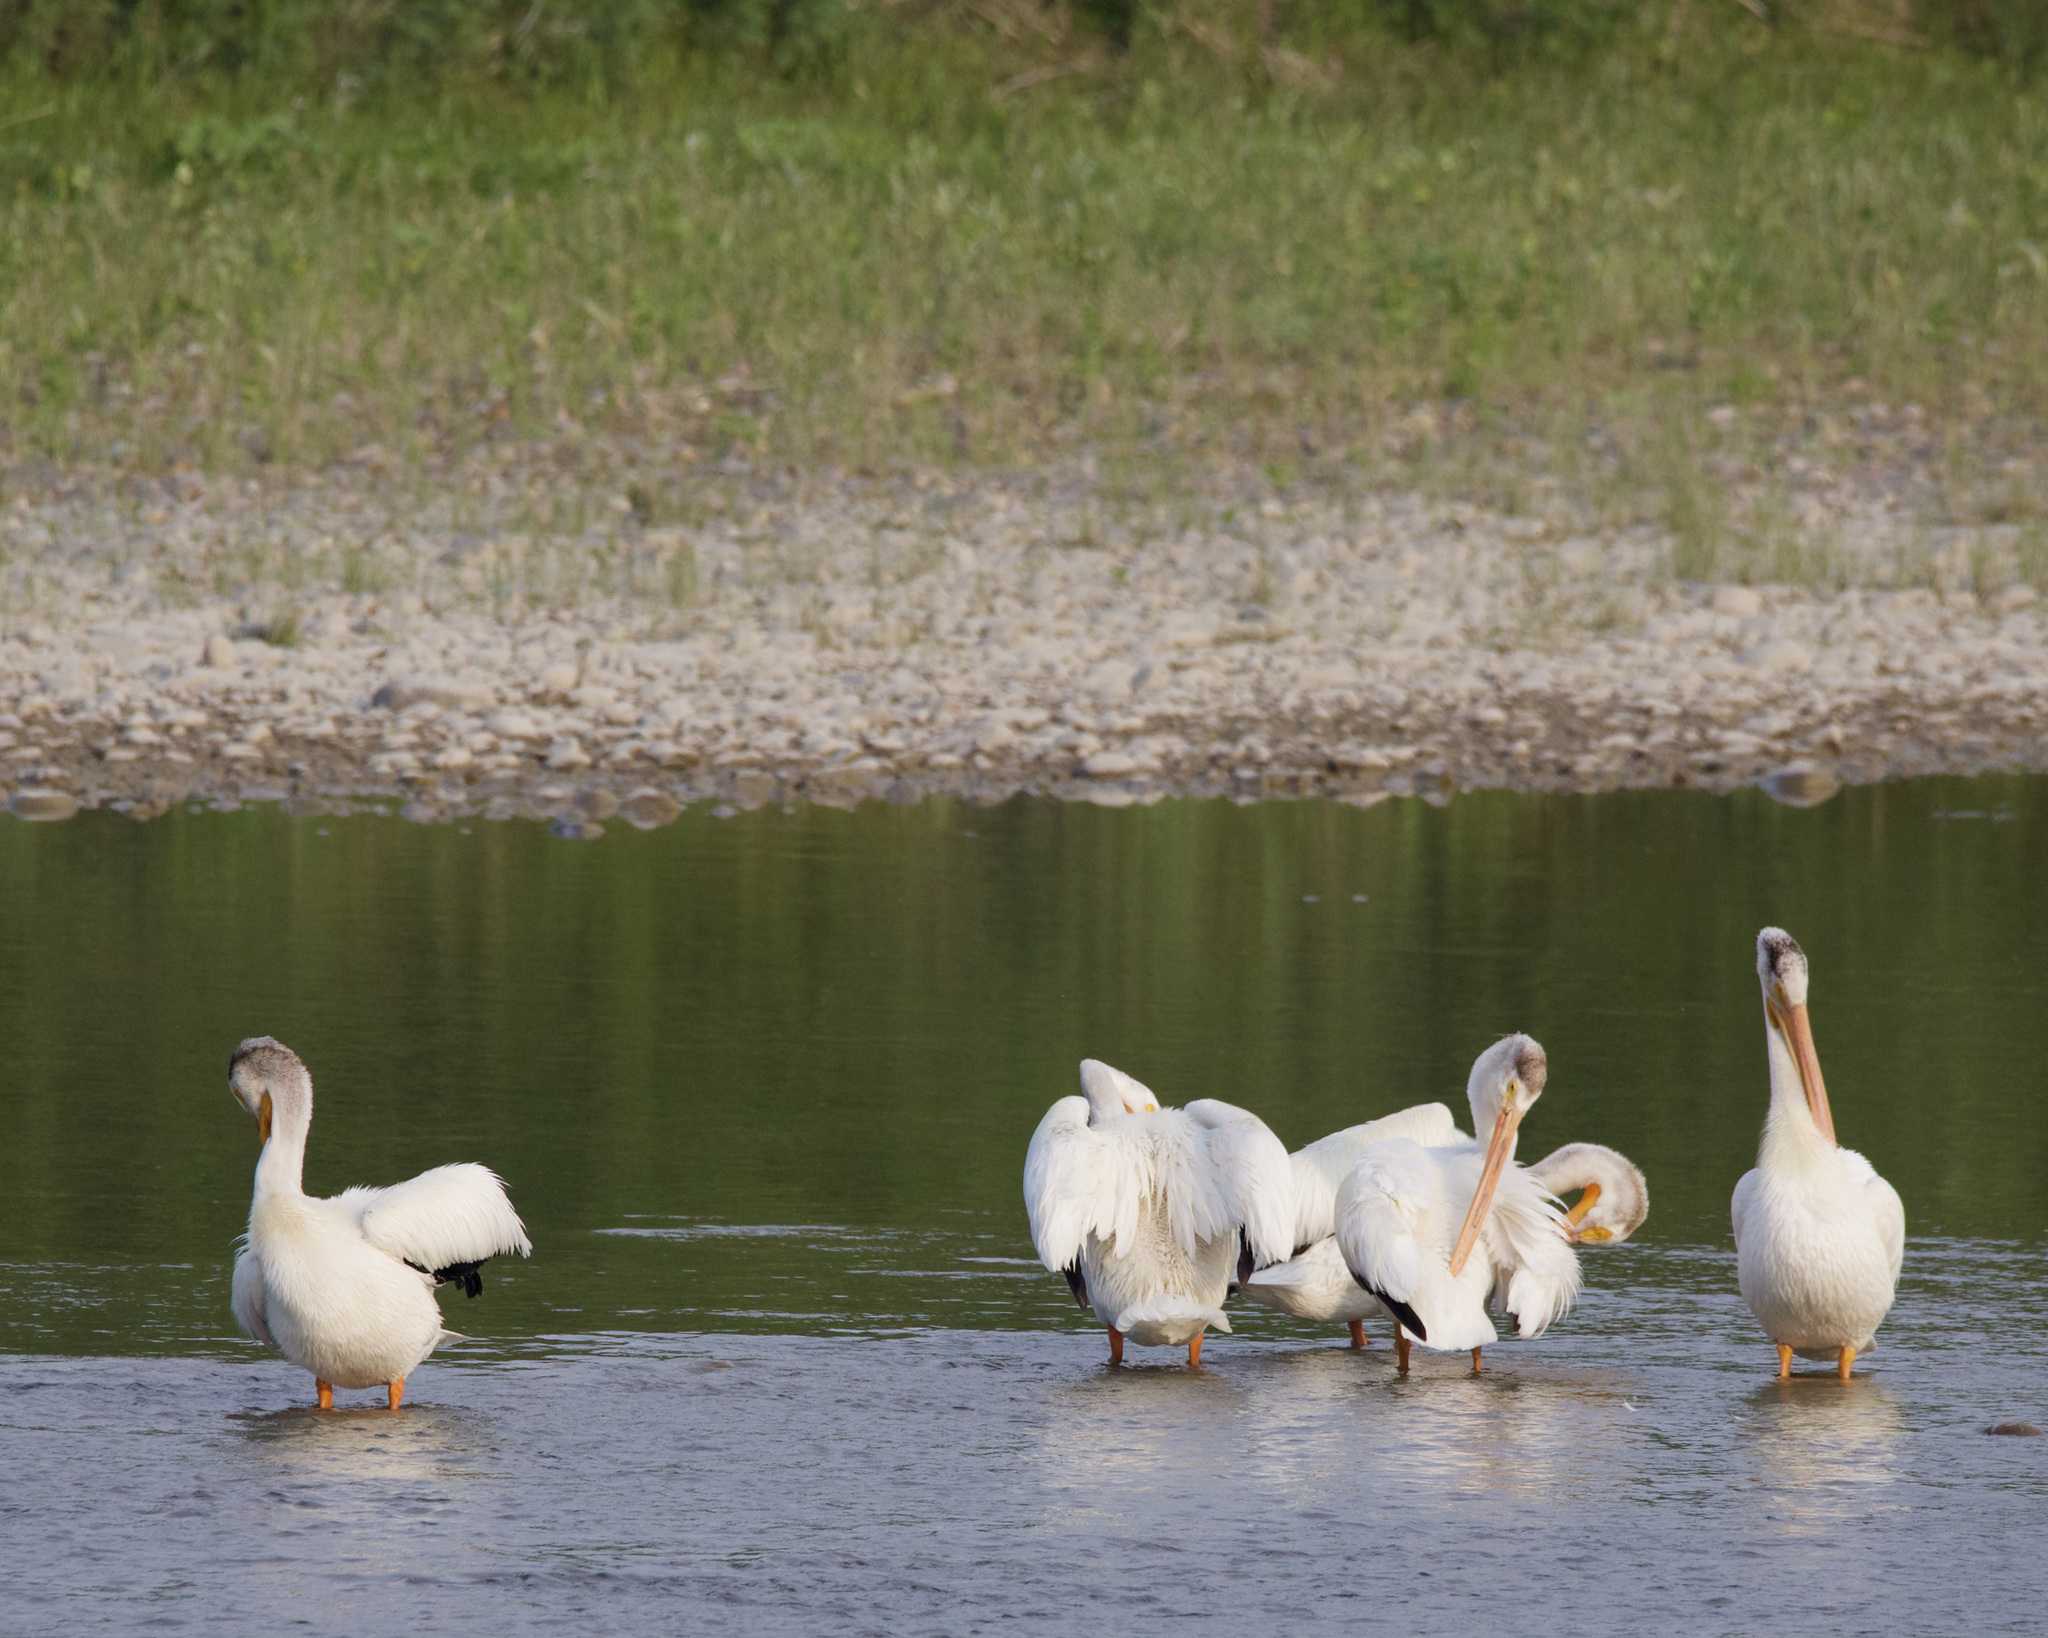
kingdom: Animalia
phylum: Chordata
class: Aves
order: Pelecaniformes
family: Pelecanidae
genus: Pelecanus
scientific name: Pelecanus erythrorhynchos
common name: American white pelican
